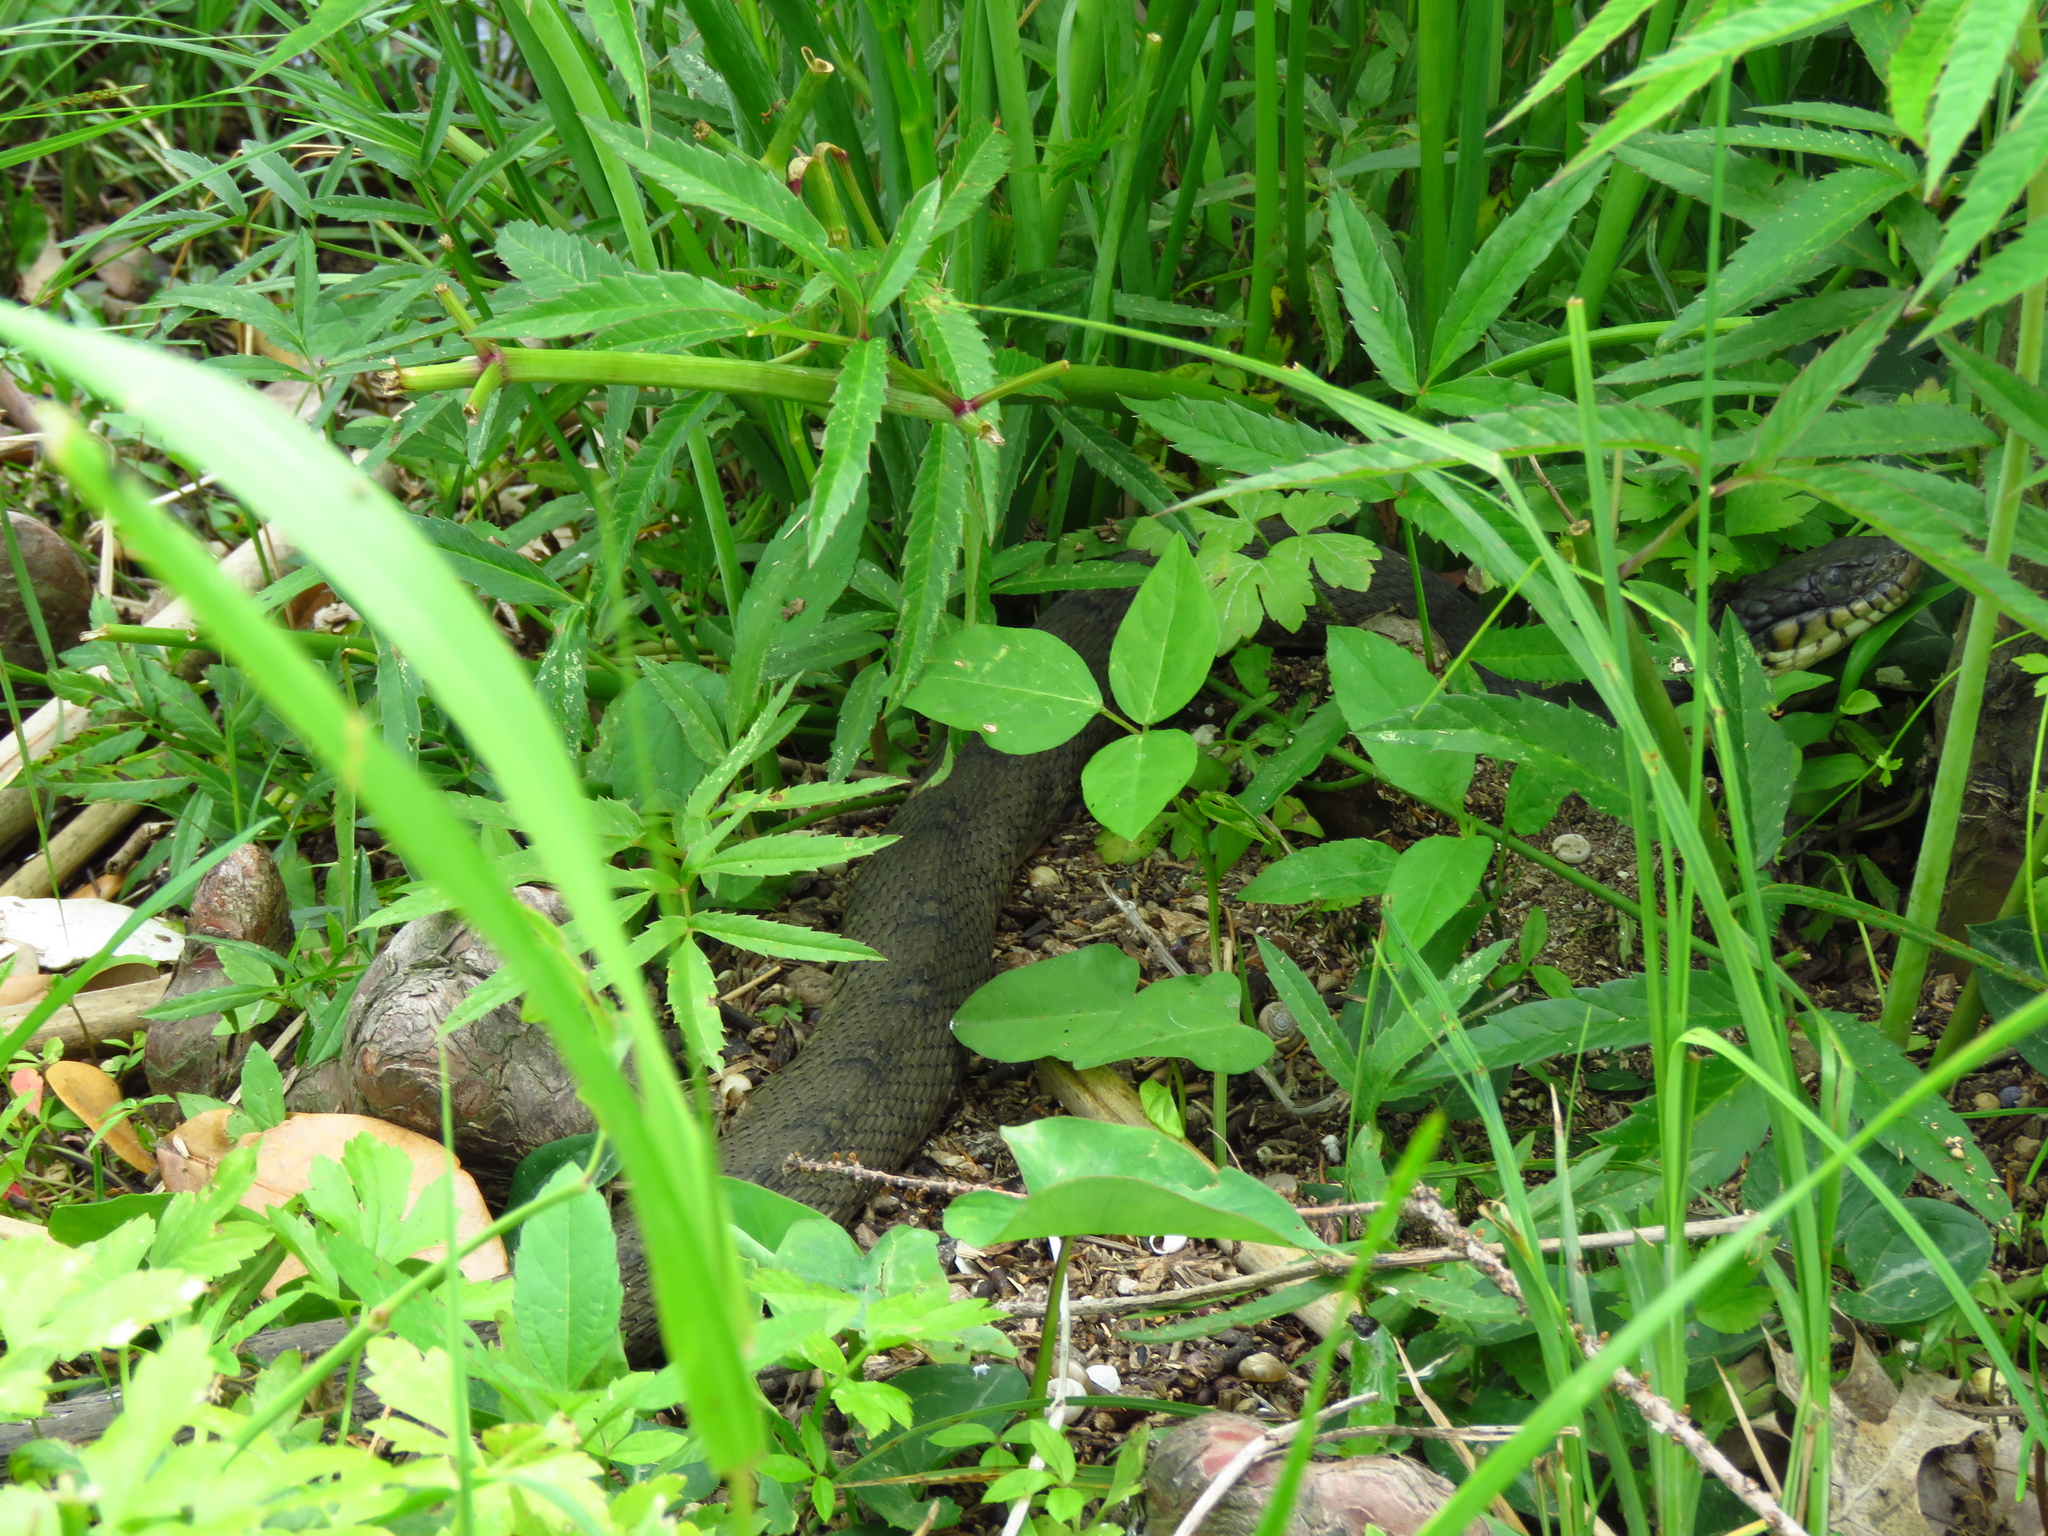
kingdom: Animalia
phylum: Chordata
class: Squamata
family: Colubridae
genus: Nerodia
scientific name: Nerodia erythrogaster
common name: Plainbelly water snake
